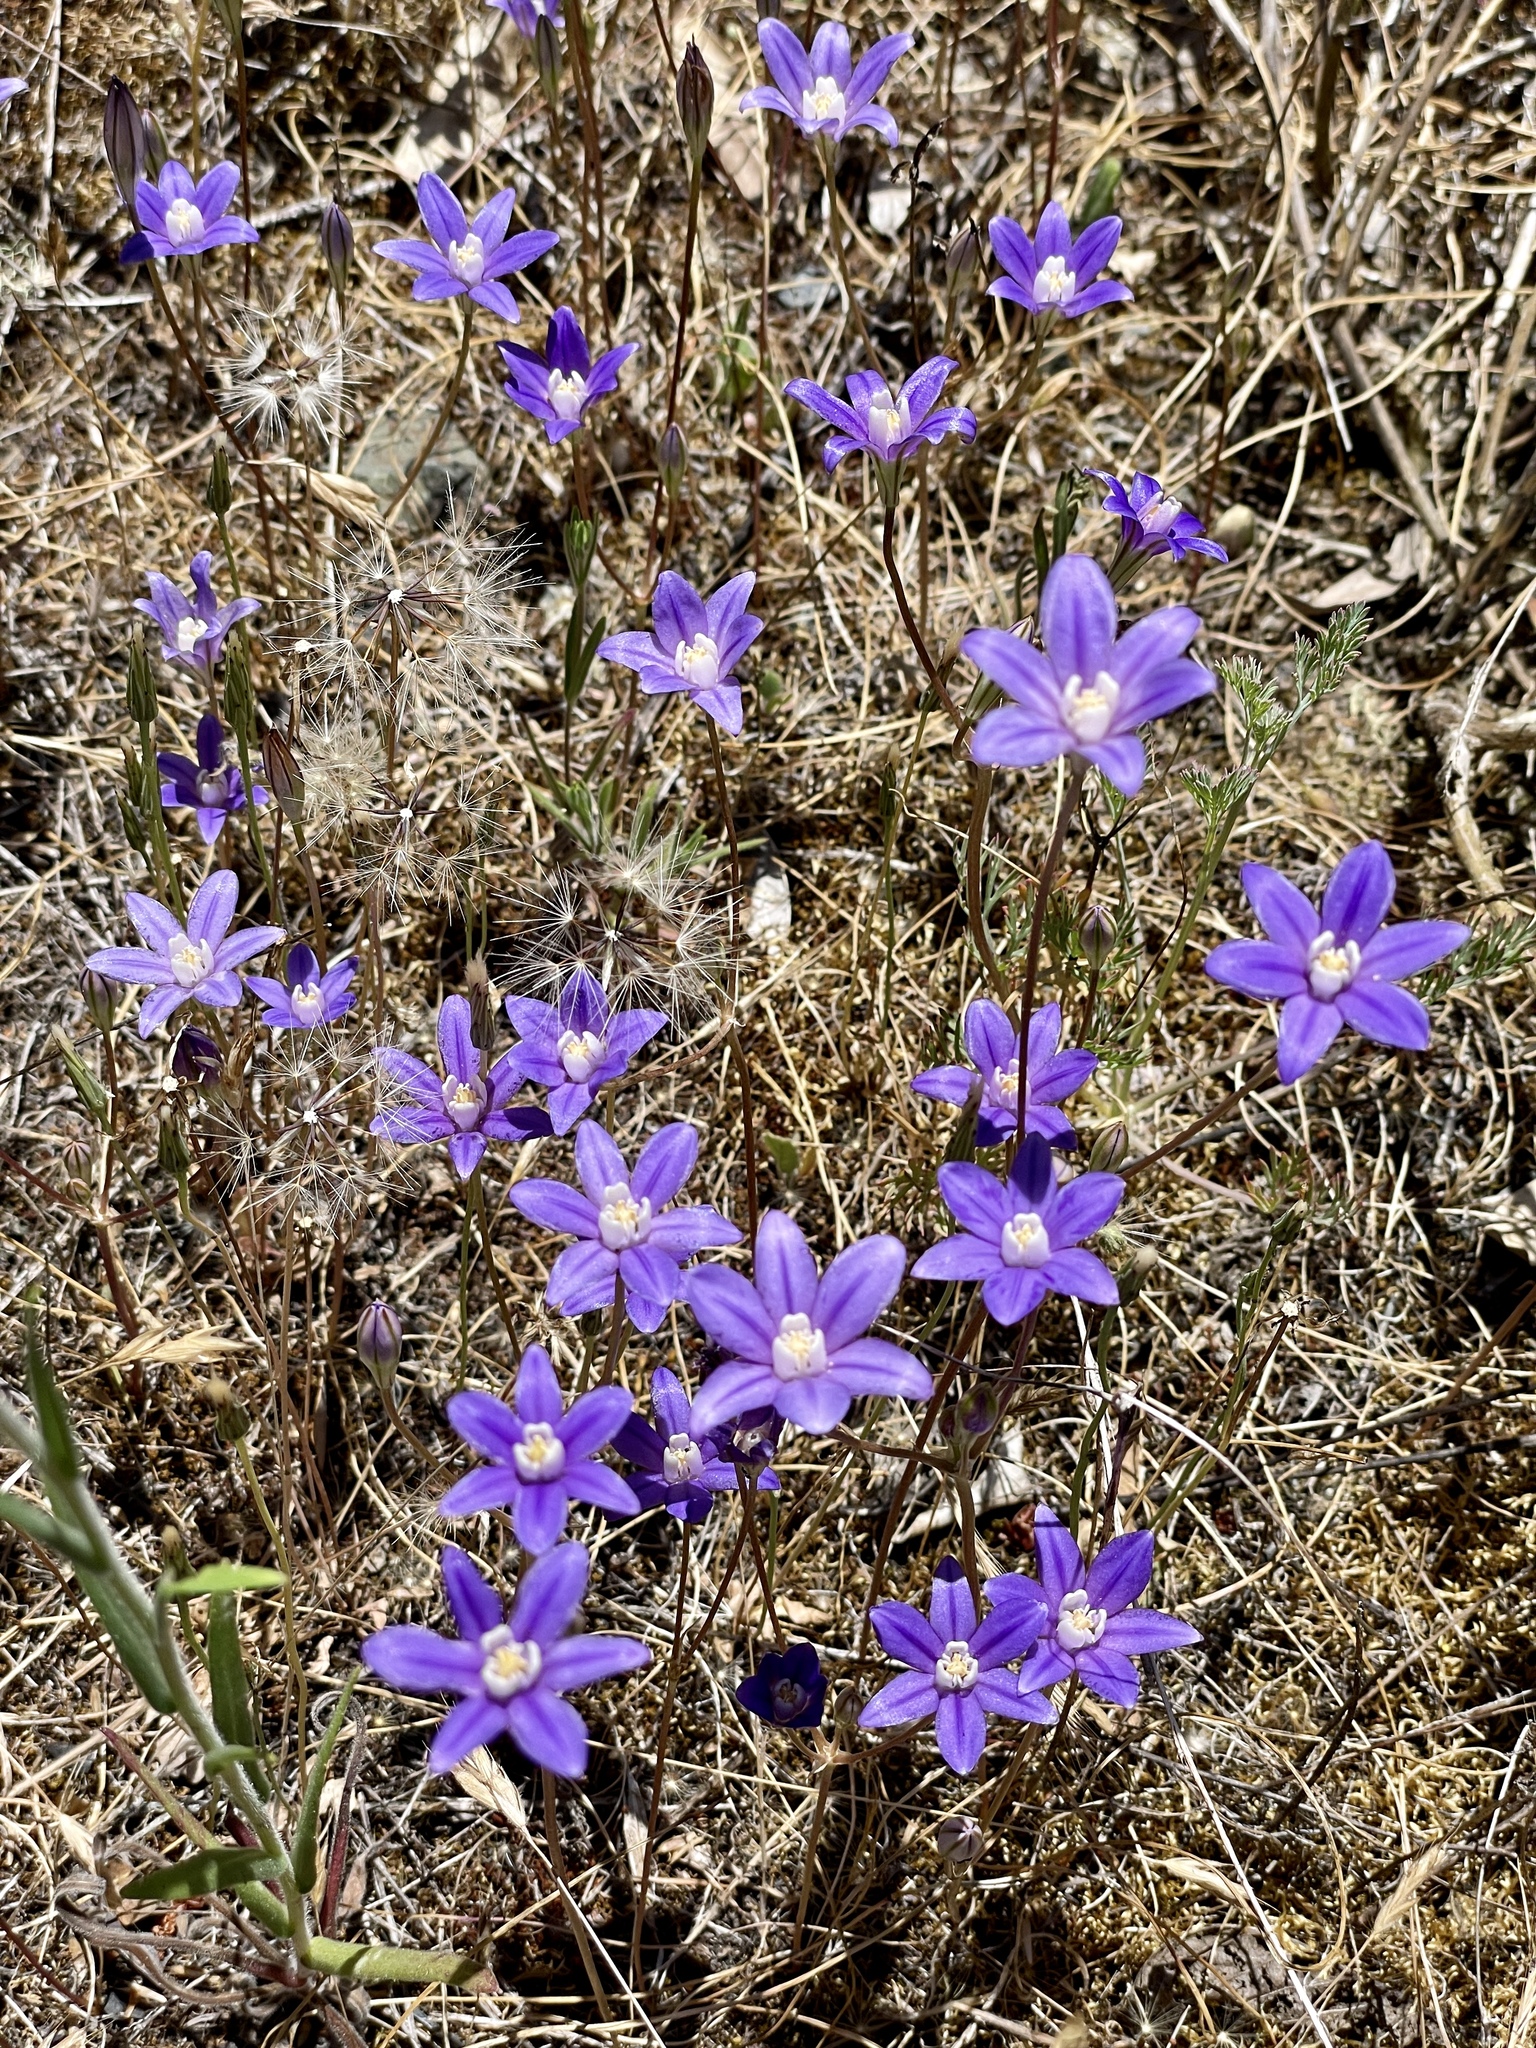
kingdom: Plantae
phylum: Tracheophyta
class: Liliopsida
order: Asparagales
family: Asparagaceae
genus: Brodiaea
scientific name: Brodiaea stellaris
